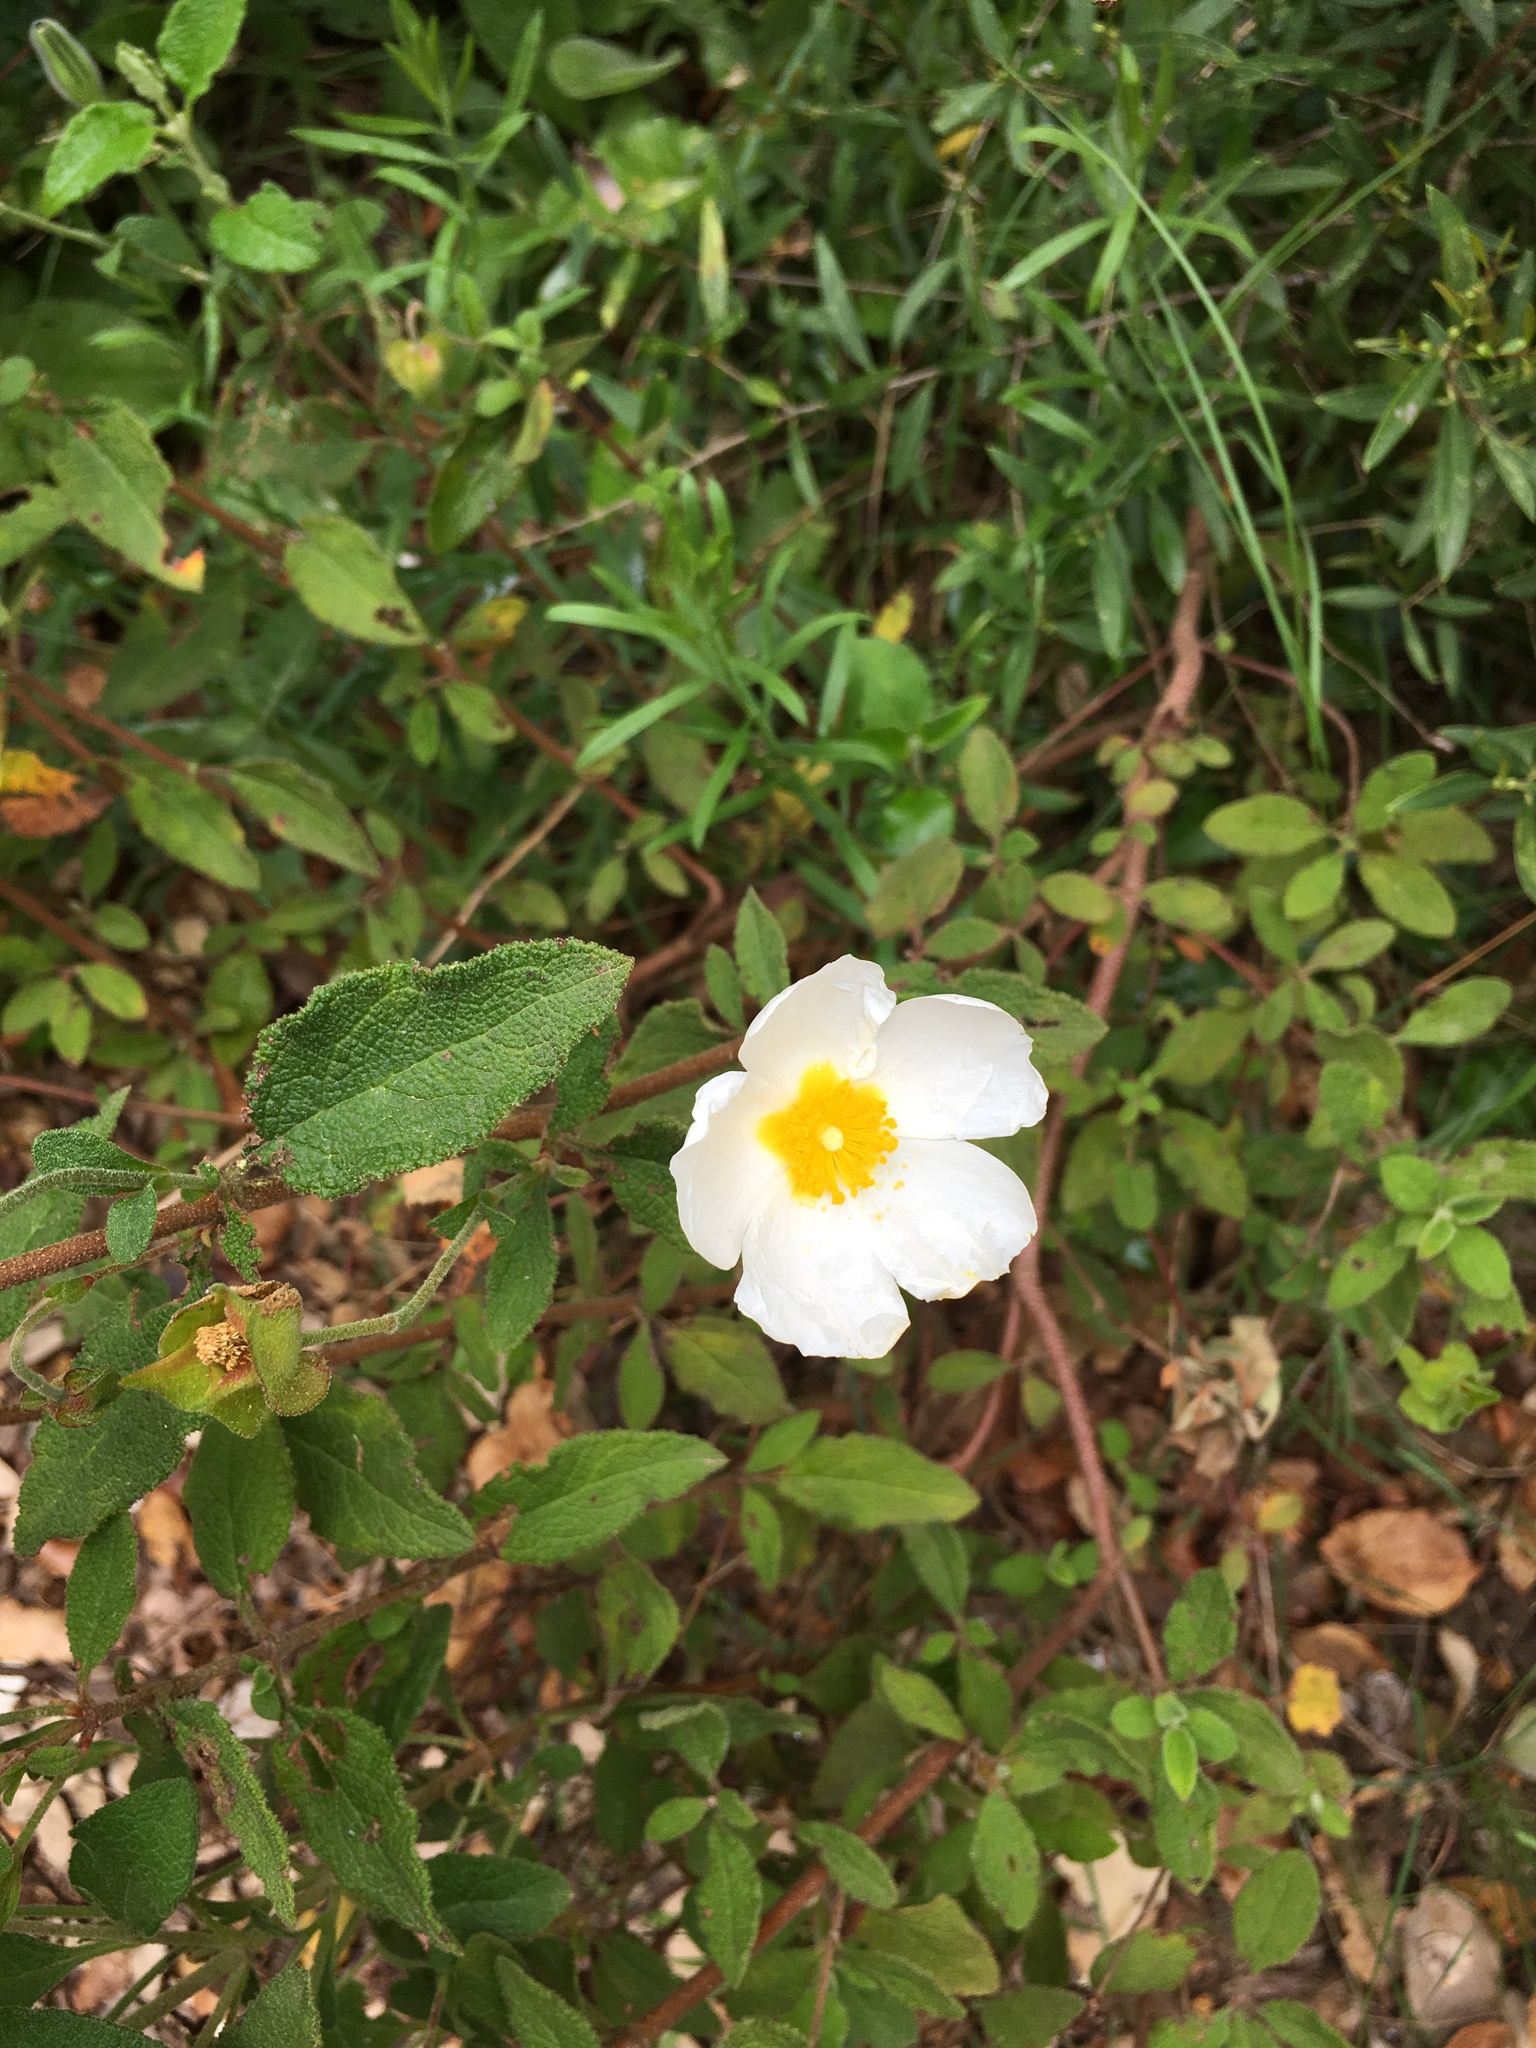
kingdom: Plantae
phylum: Tracheophyta
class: Magnoliopsida
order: Malvales
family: Cistaceae
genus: Cistus
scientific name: Cistus salviifolius
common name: Salvia cistus
